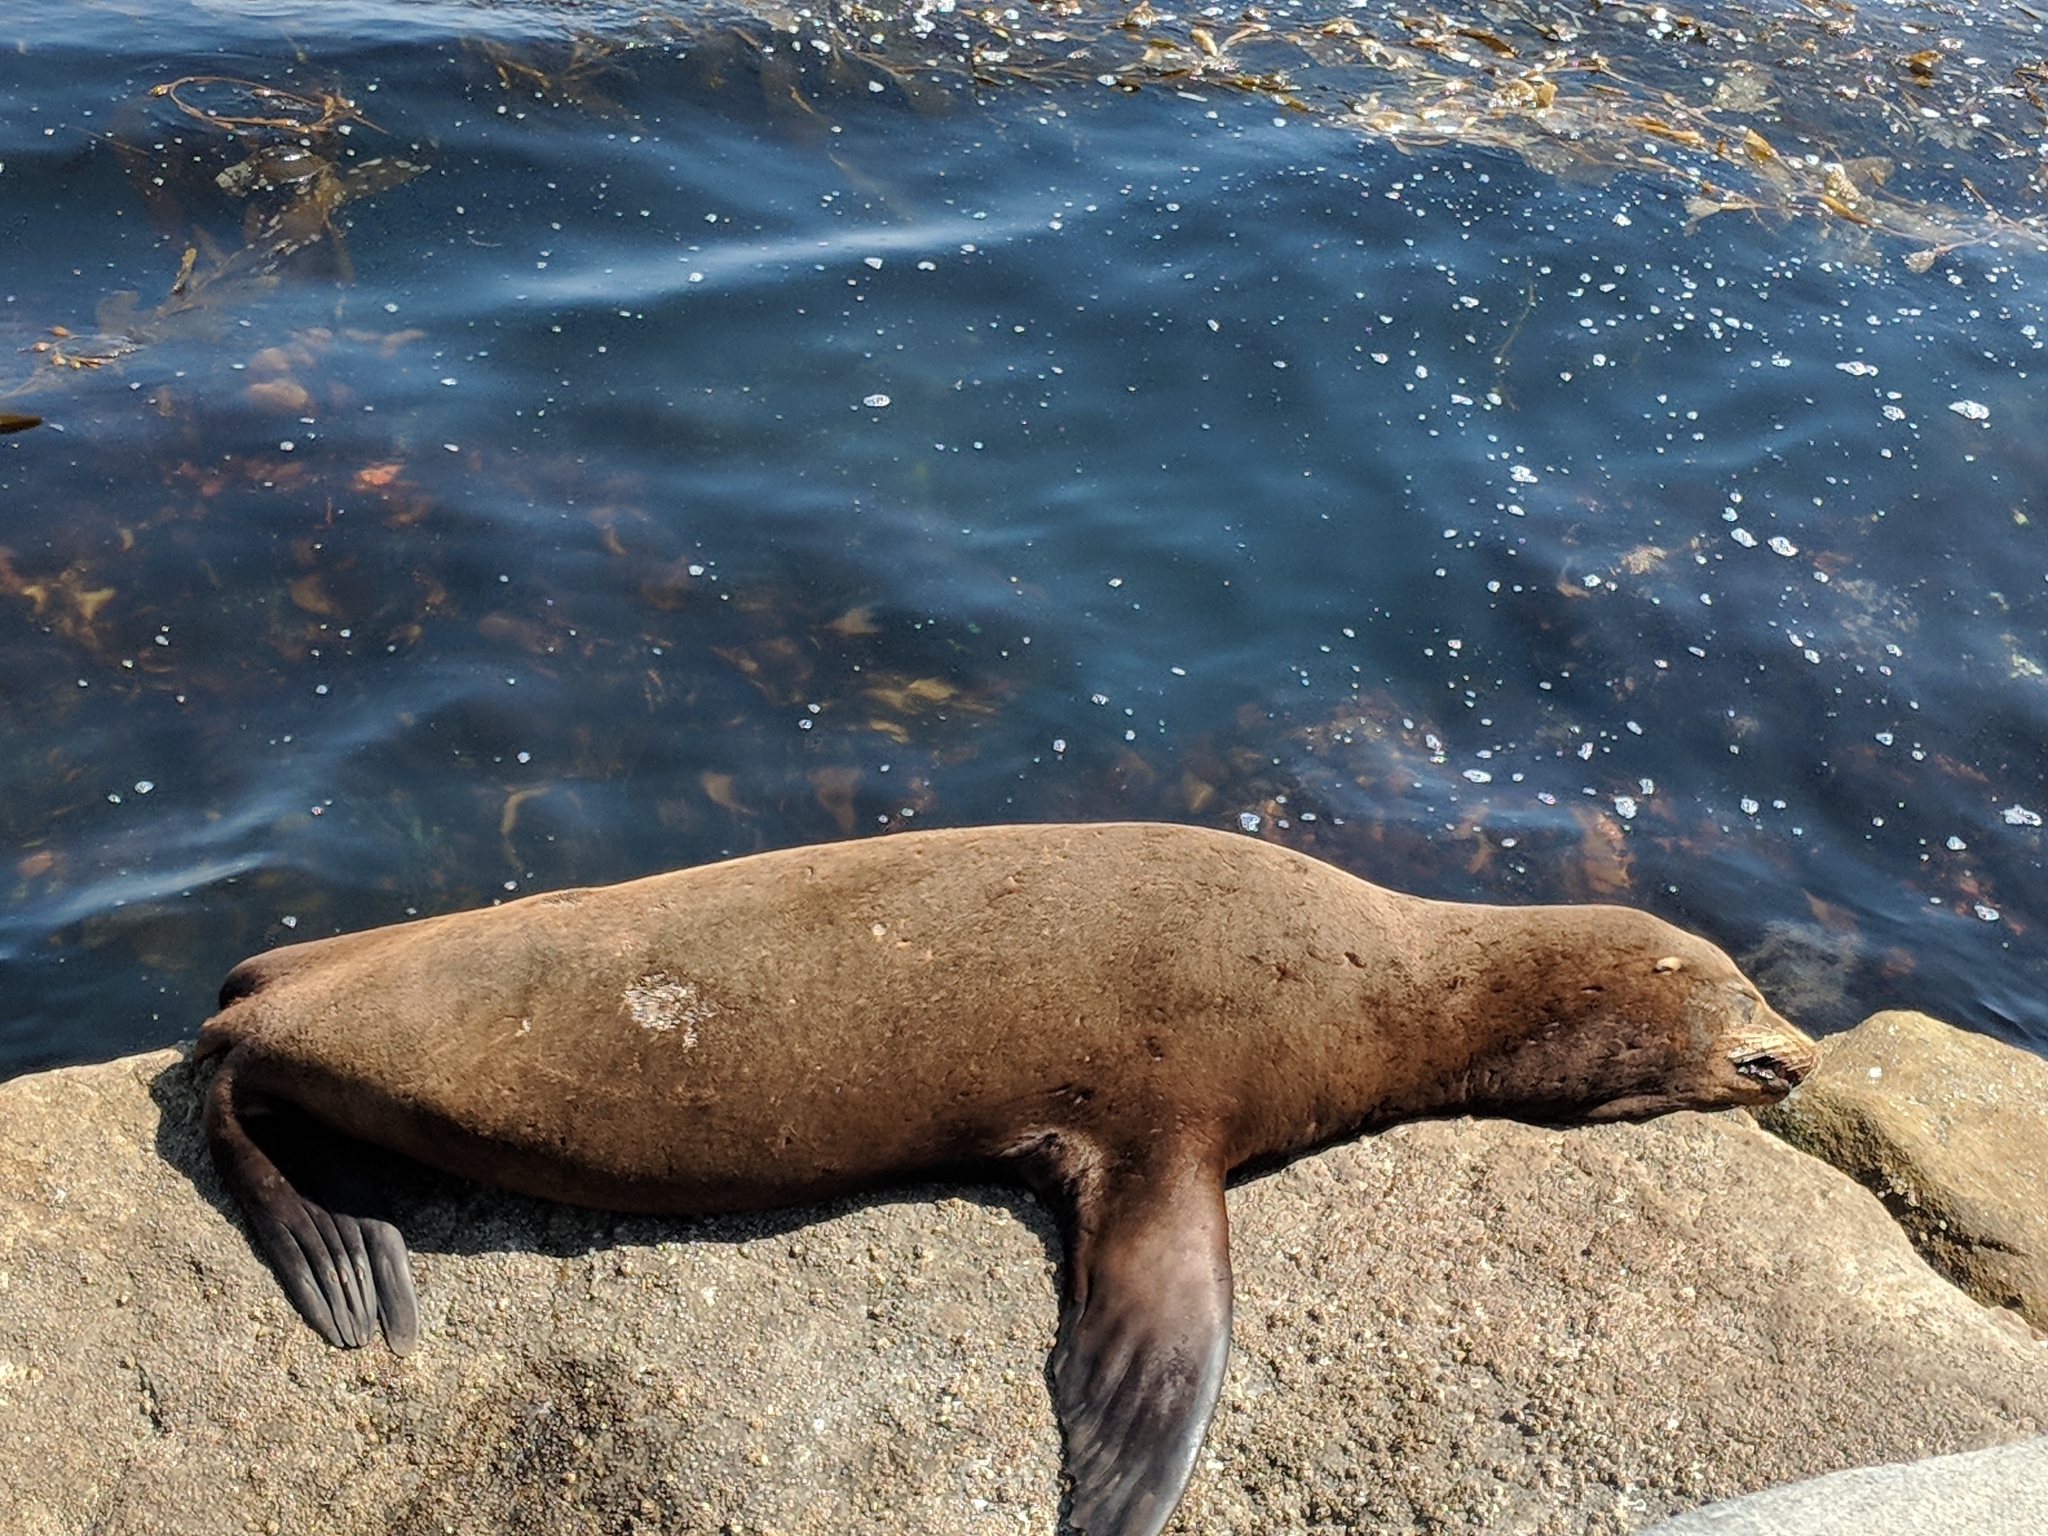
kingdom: Animalia
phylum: Chordata
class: Mammalia
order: Carnivora
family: Otariidae
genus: Zalophus
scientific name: Zalophus californianus
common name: California sea lion
